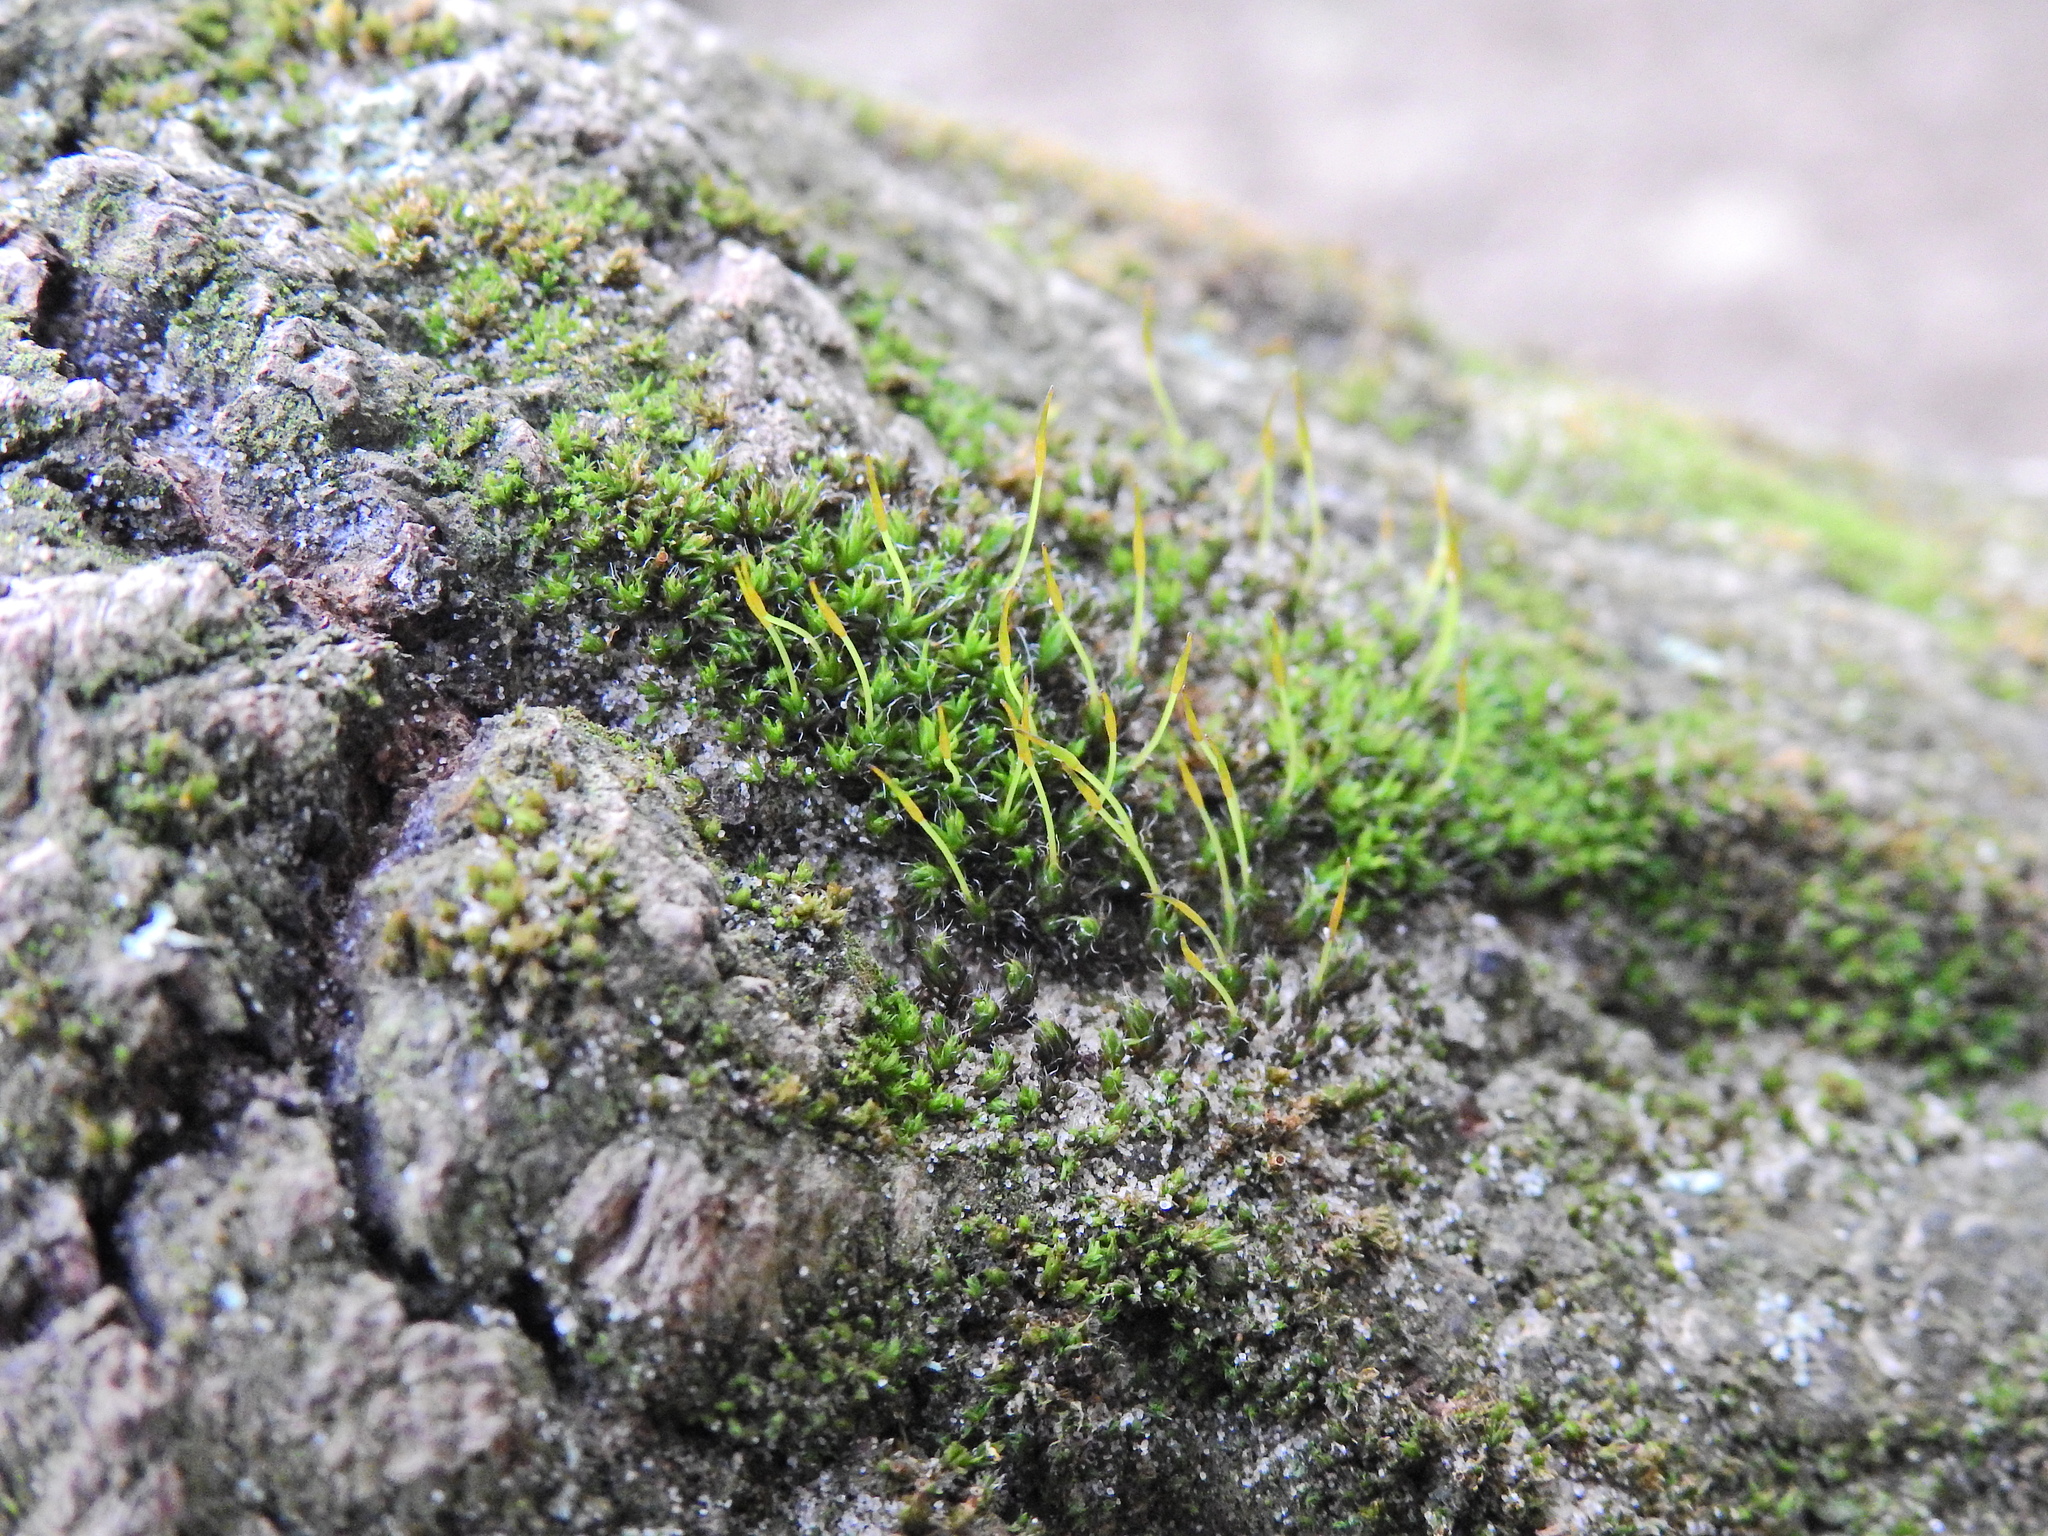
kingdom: Plantae
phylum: Bryophyta
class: Bryopsida
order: Pottiales
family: Pottiaceae
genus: Tortula
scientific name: Tortula muralis
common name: Wall screw-moss
